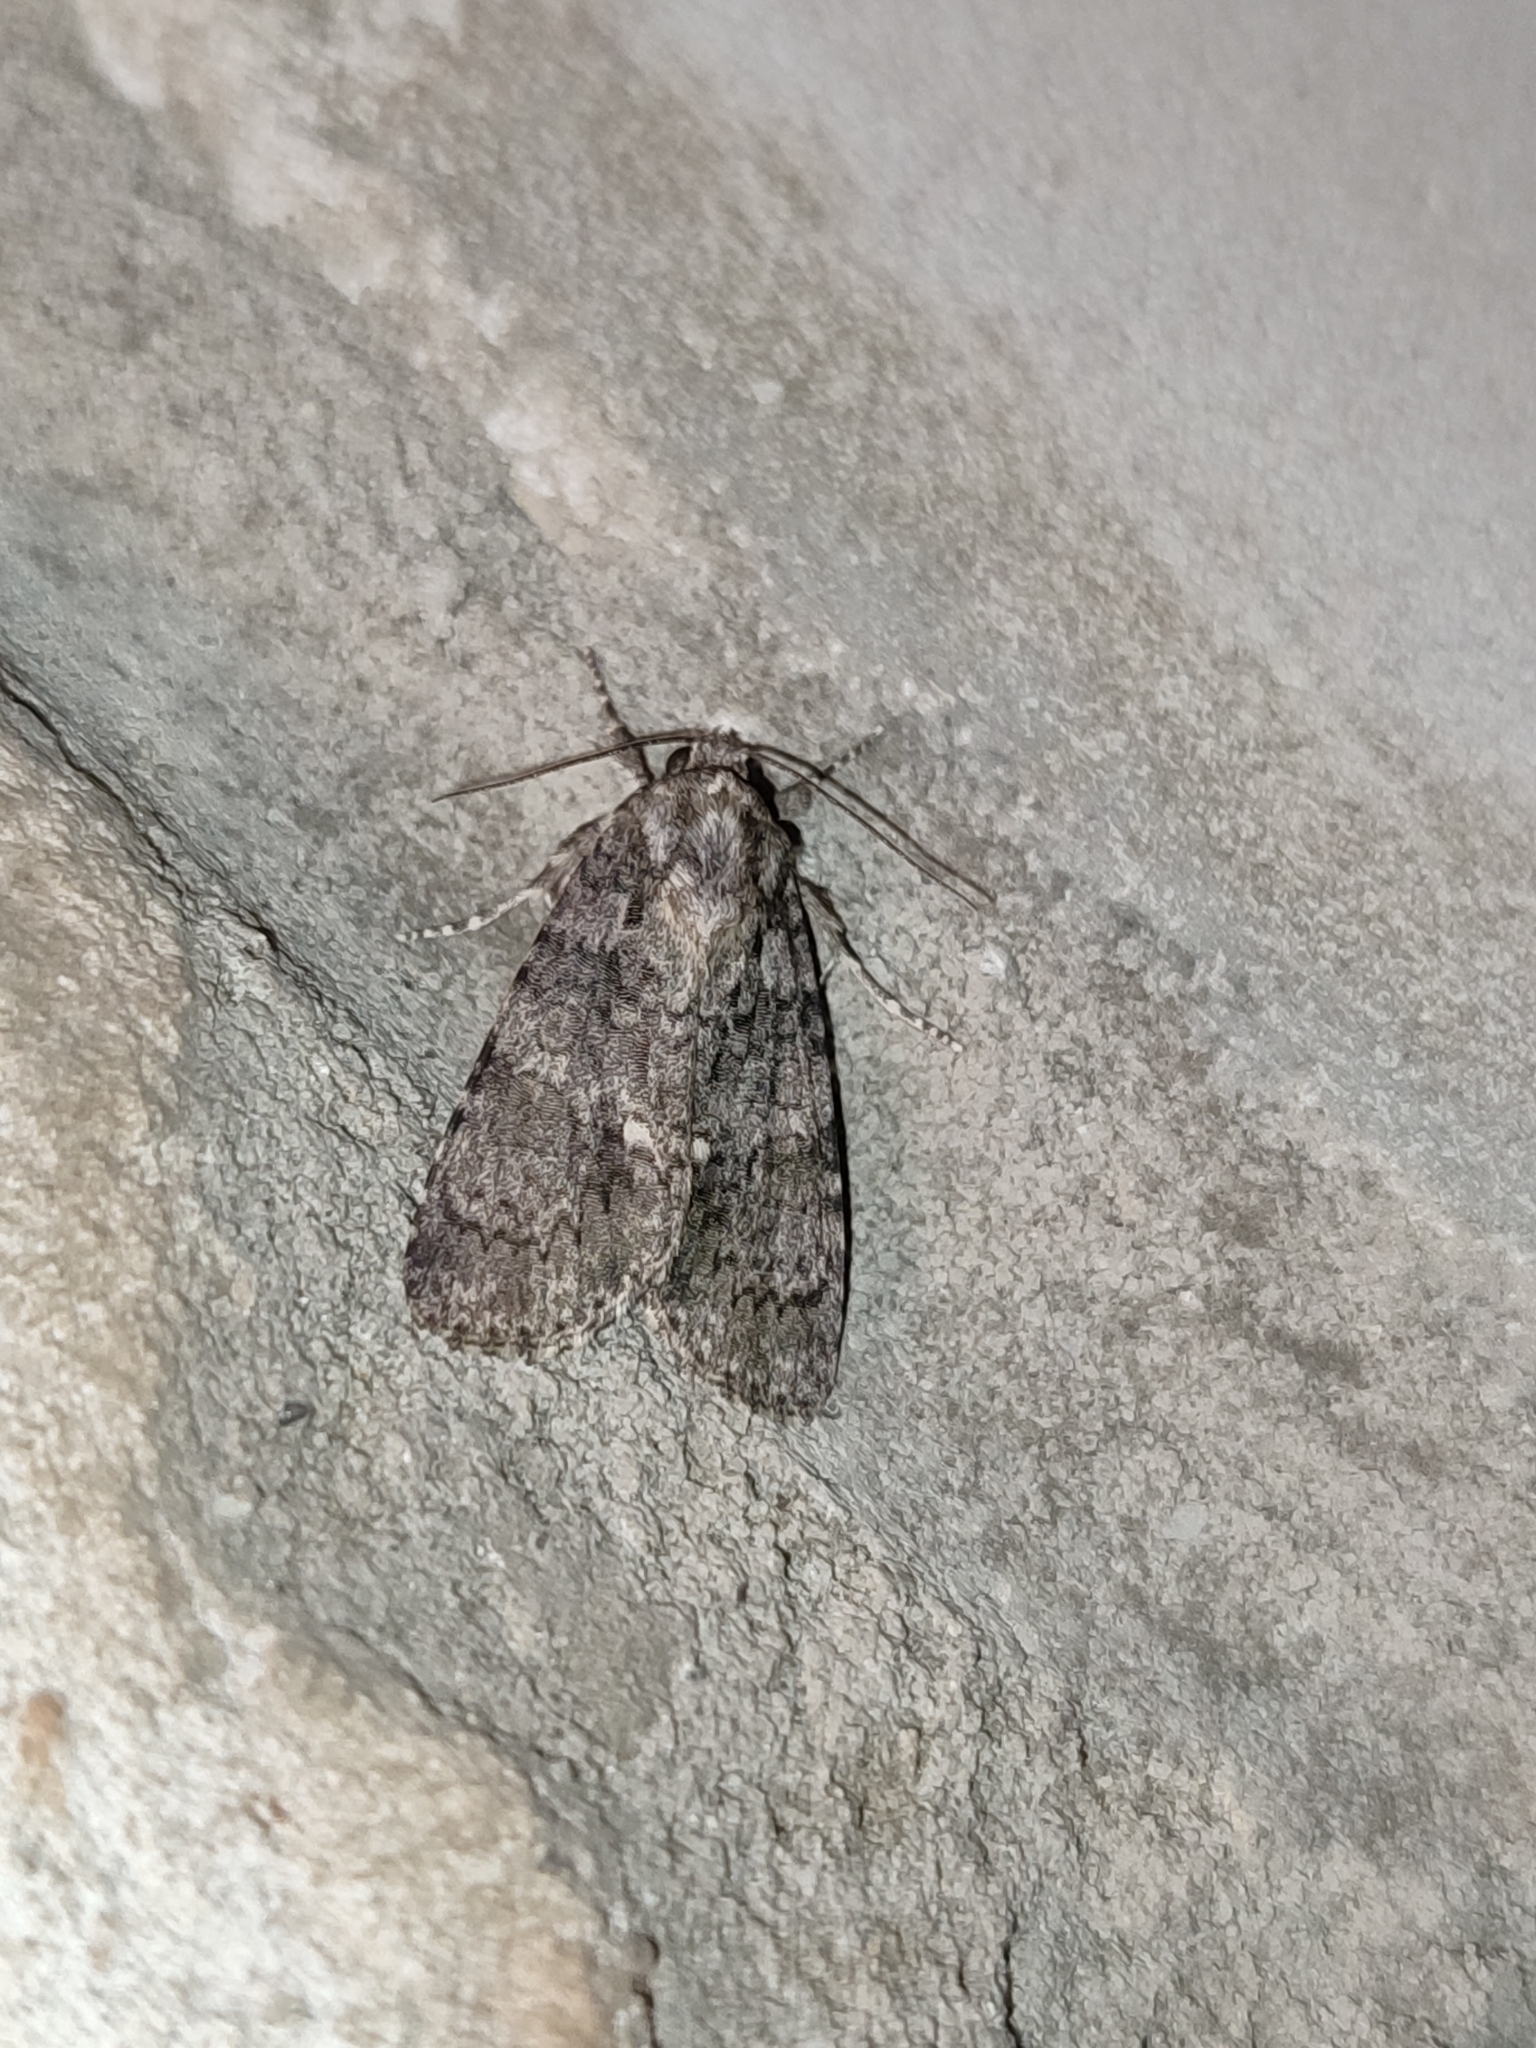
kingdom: Animalia
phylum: Arthropoda
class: Insecta
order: Lepidoptera
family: Noctuidae
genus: Acronicta
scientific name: Acronicta rumicis
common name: Knot grass
